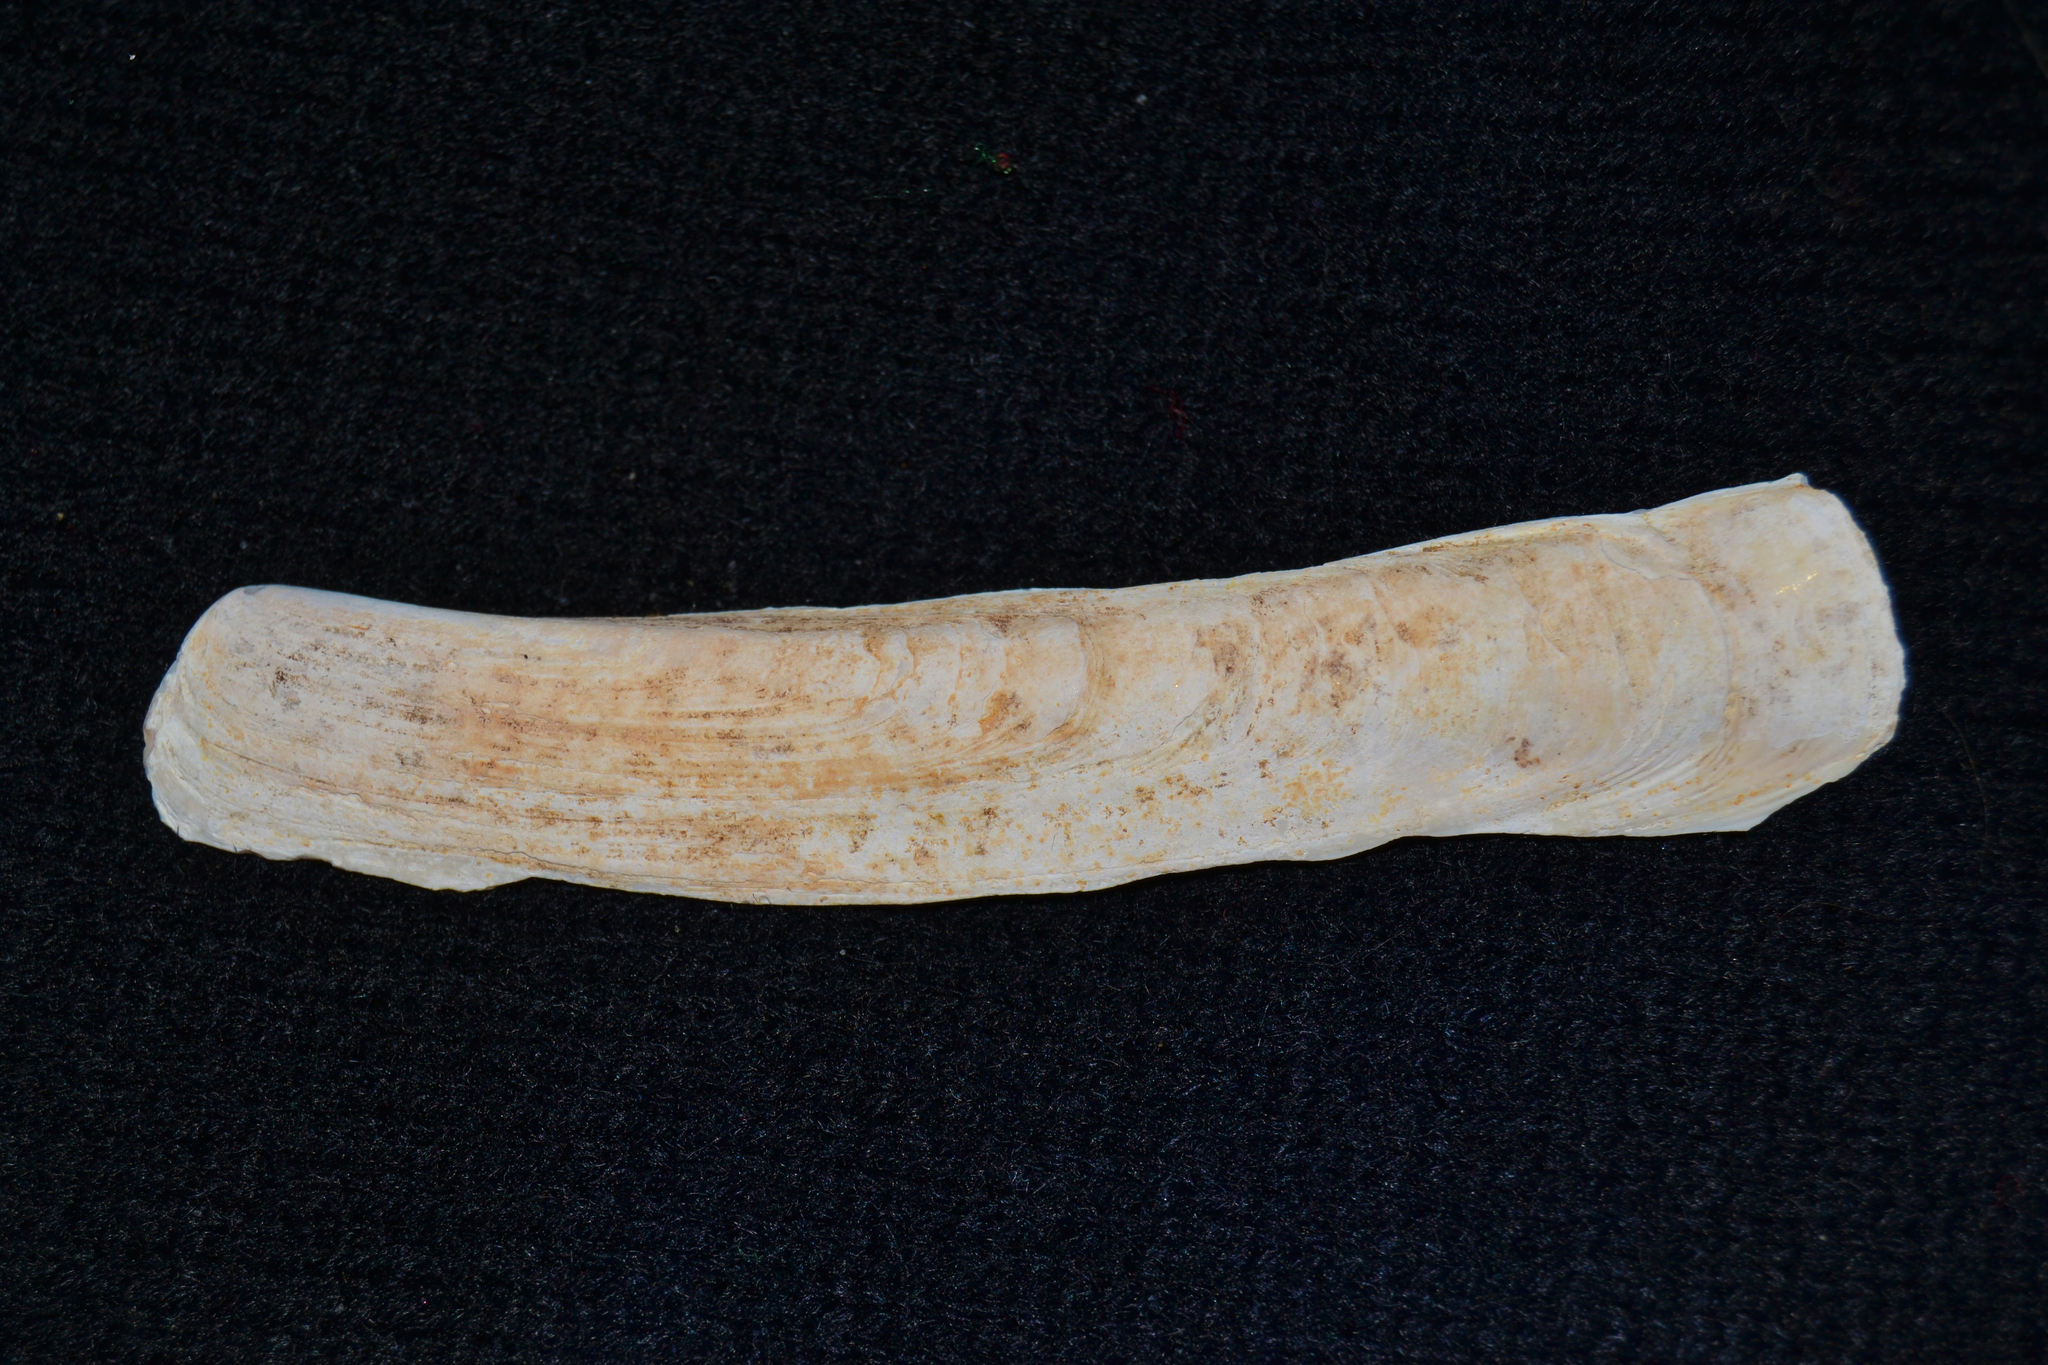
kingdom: Animalia
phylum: Mollusca
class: Bivalvia
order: Adapedonta
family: Pharidae
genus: Ensis
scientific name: Ensis leei
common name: American jack knife clam
